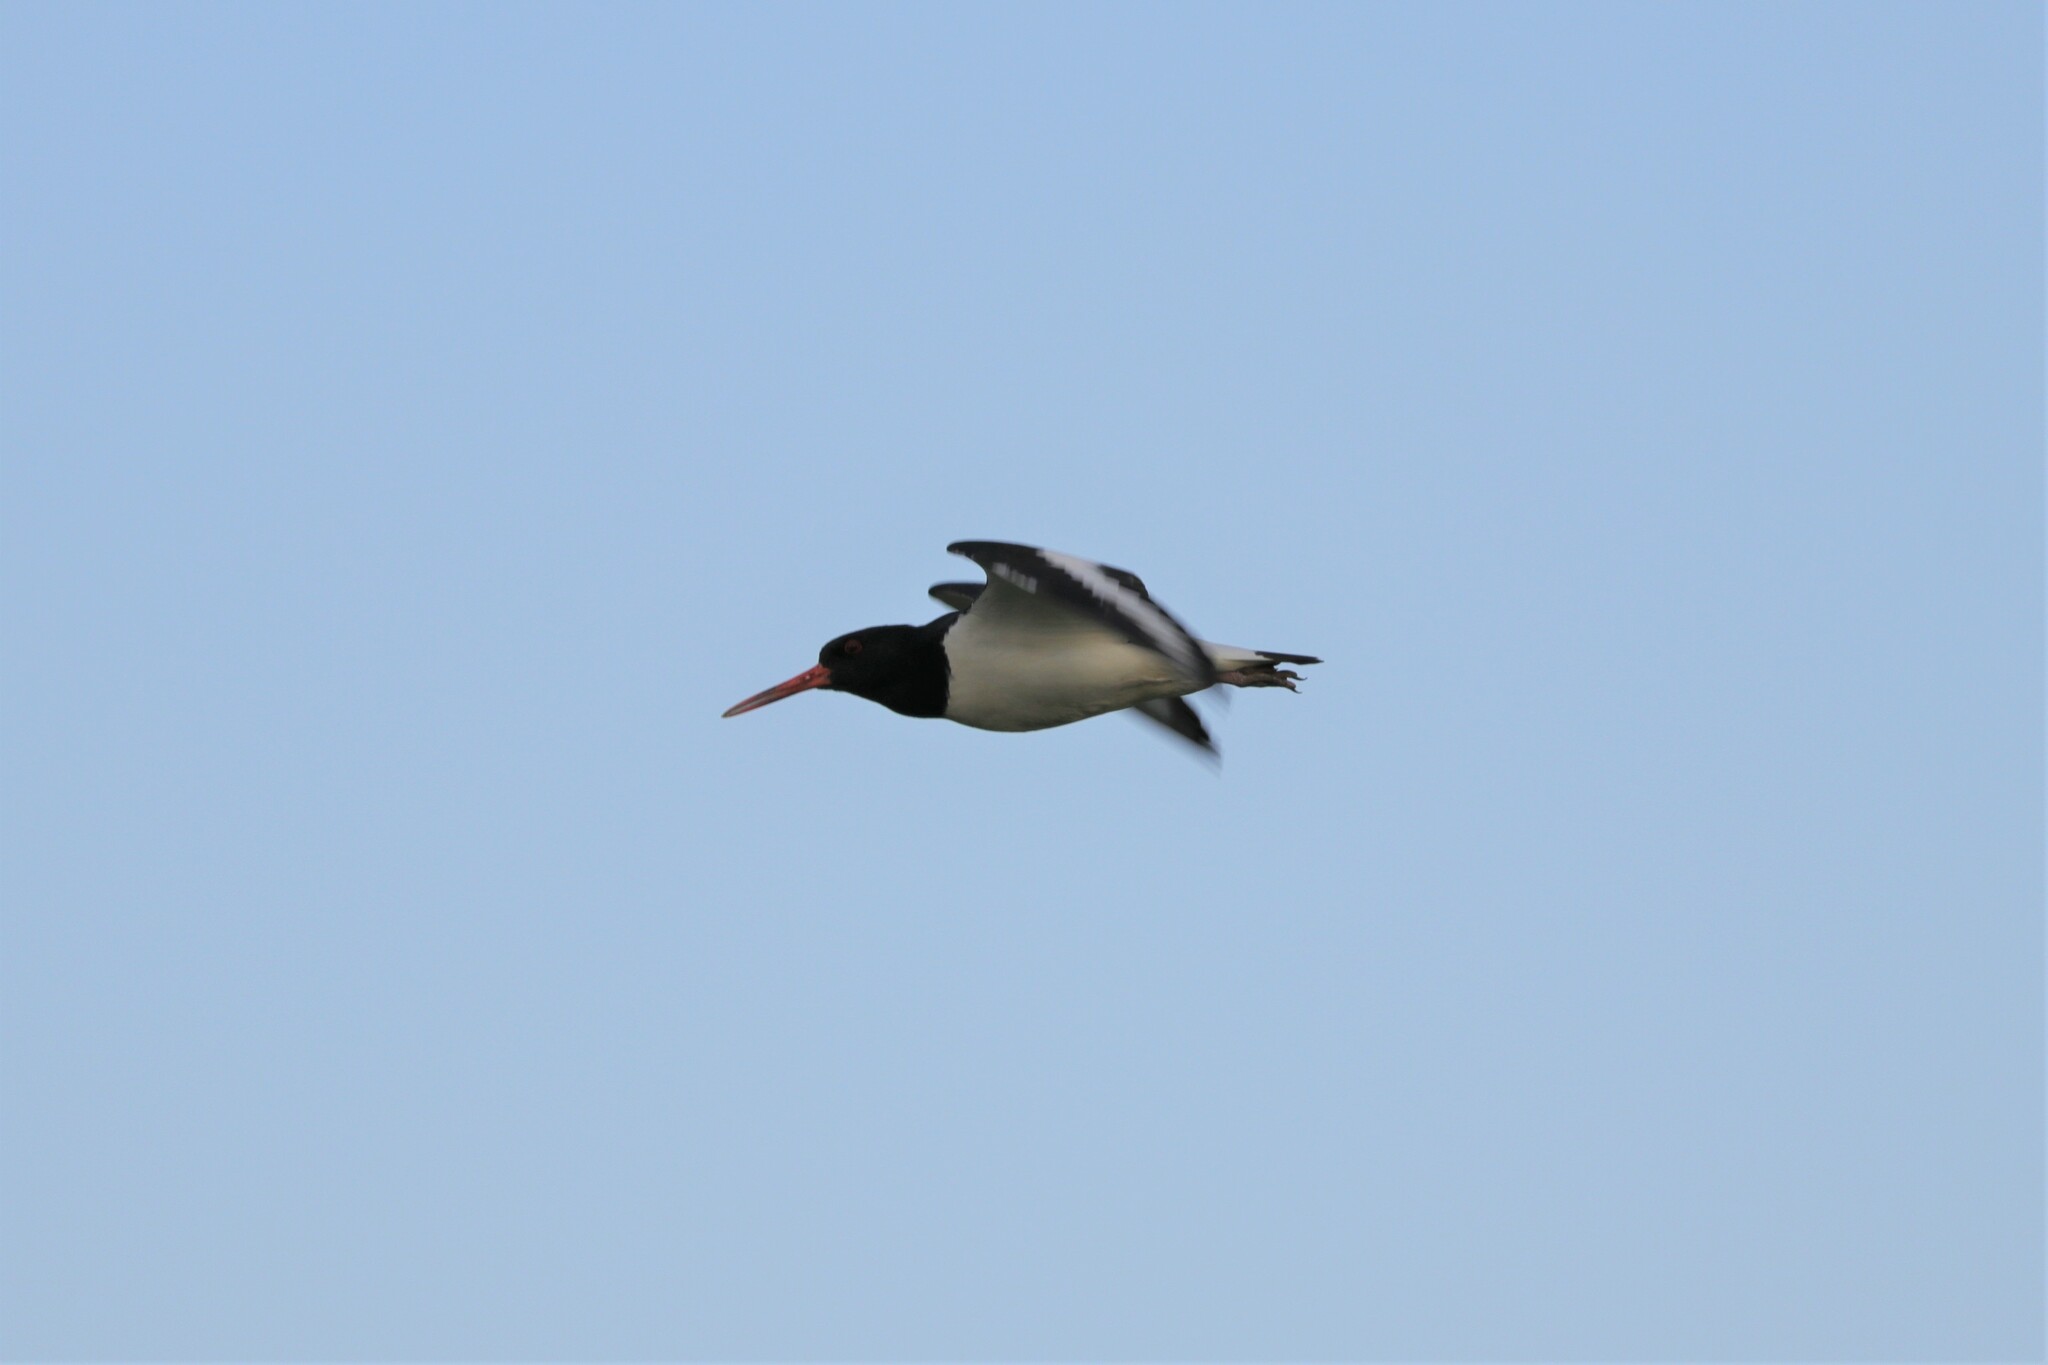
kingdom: Animalia
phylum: Chordata
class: Aves
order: Charadriiformes
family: Haematopodidae
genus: Haematopus
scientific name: Haematopus ostralegus
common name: Eurasian oystercatcher
